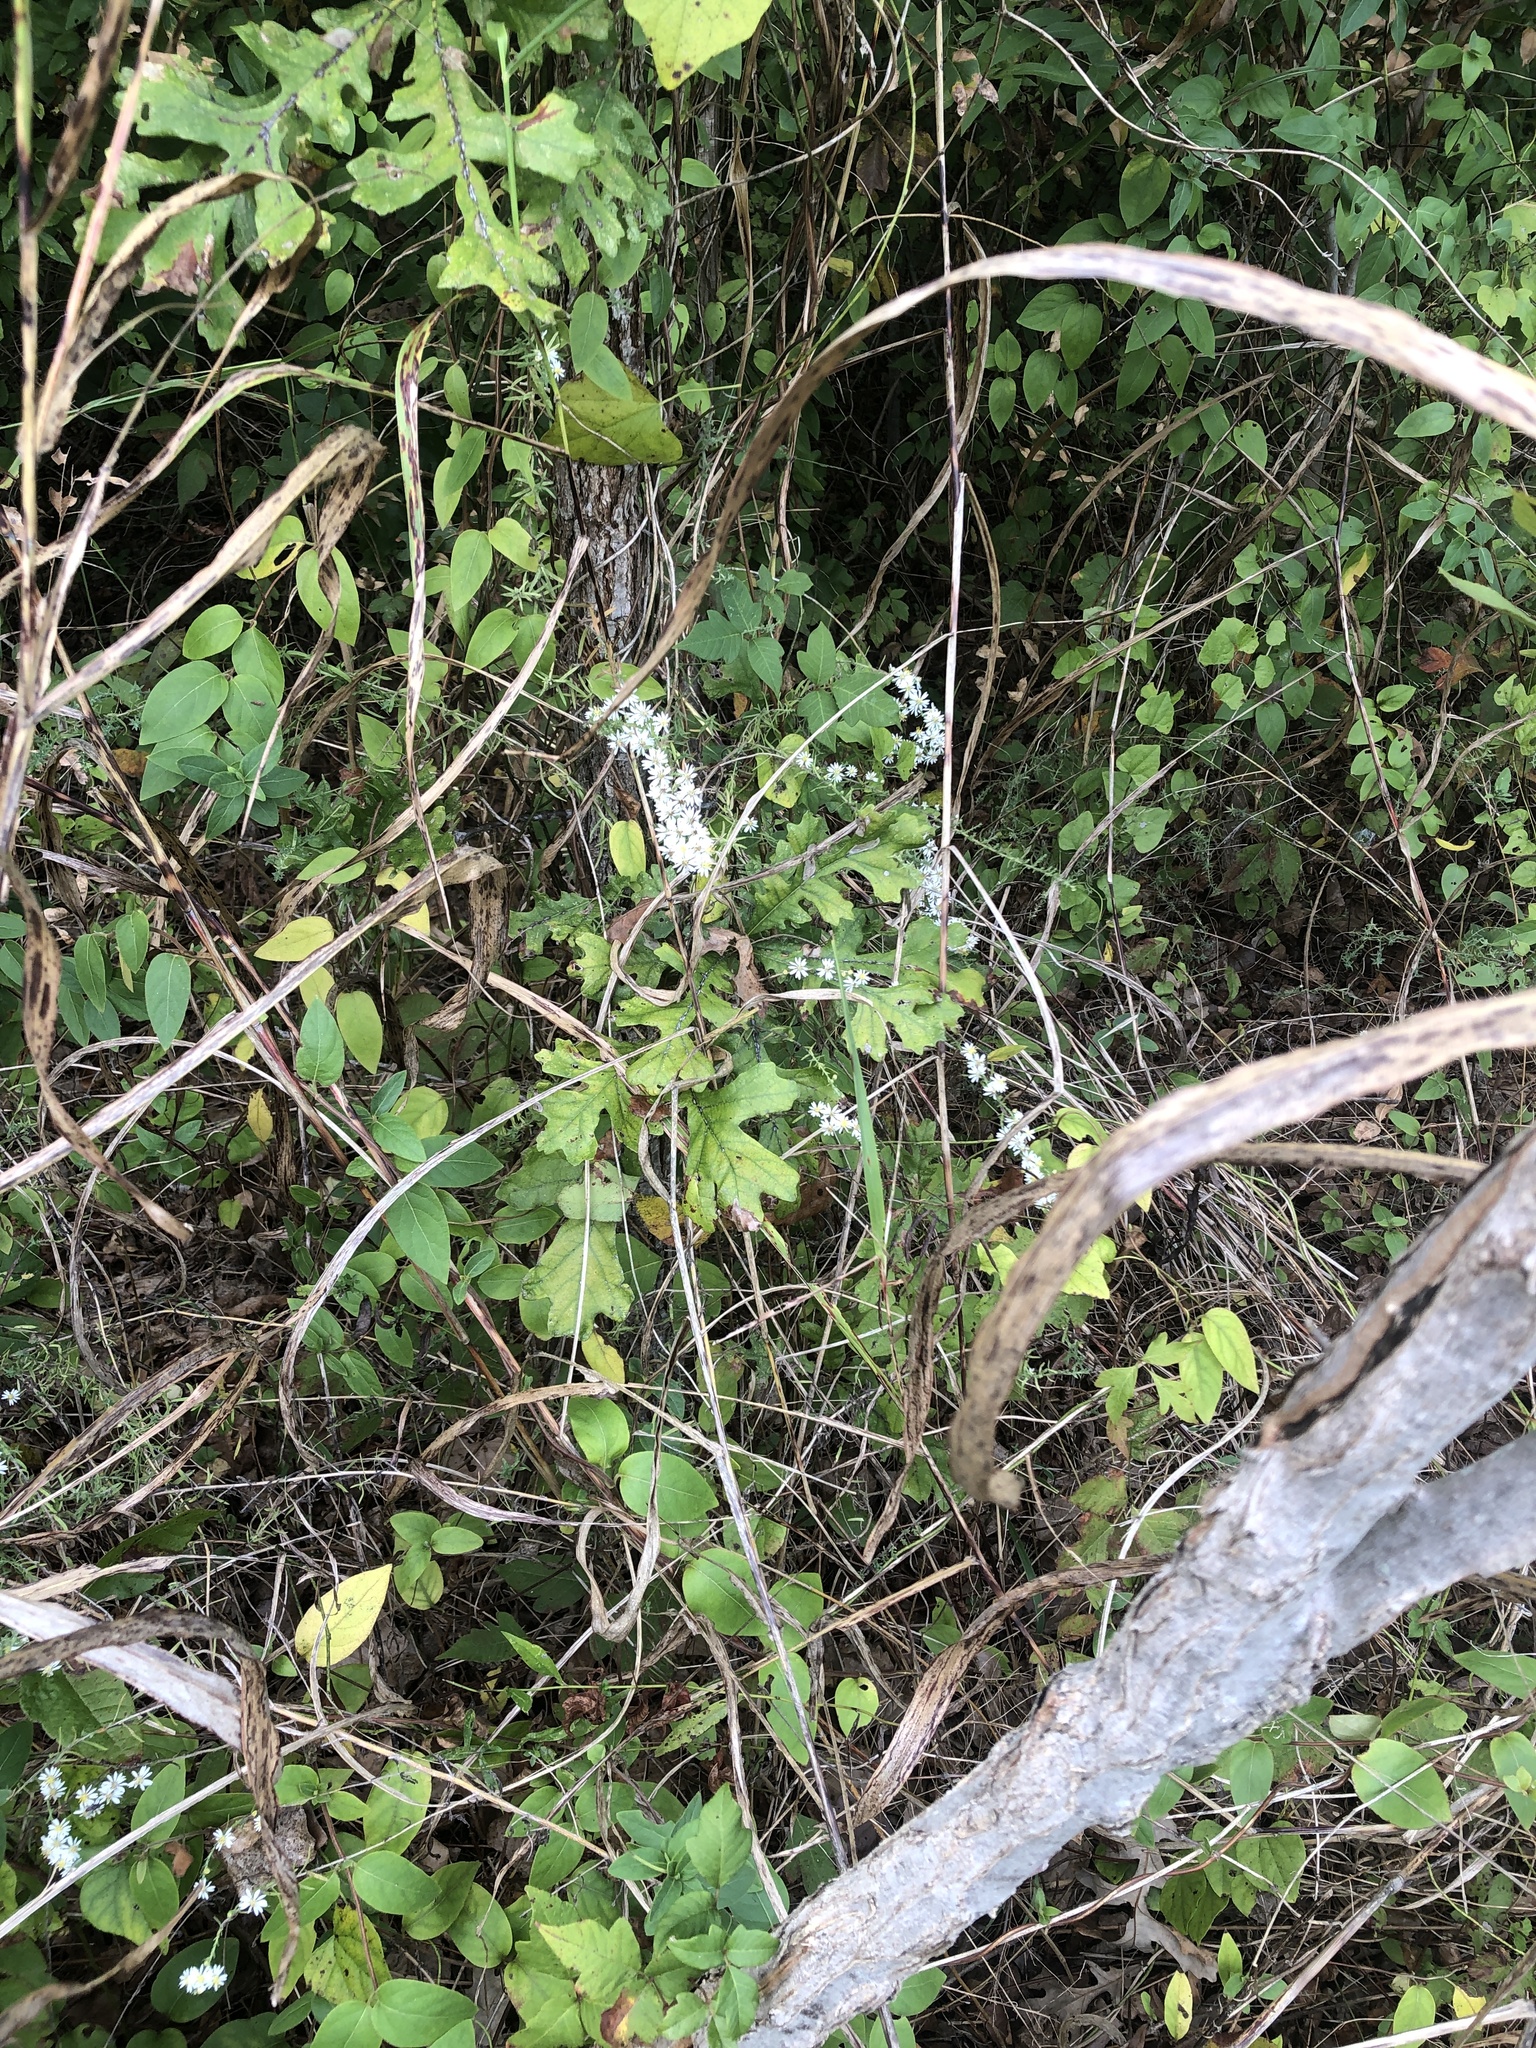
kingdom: Plantae
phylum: Tracheophyta
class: Magnoliopsida
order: Asterales
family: Asteraceae
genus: Symphyotrichum
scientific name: Symphyotrichum ericoides
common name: Heath aster
